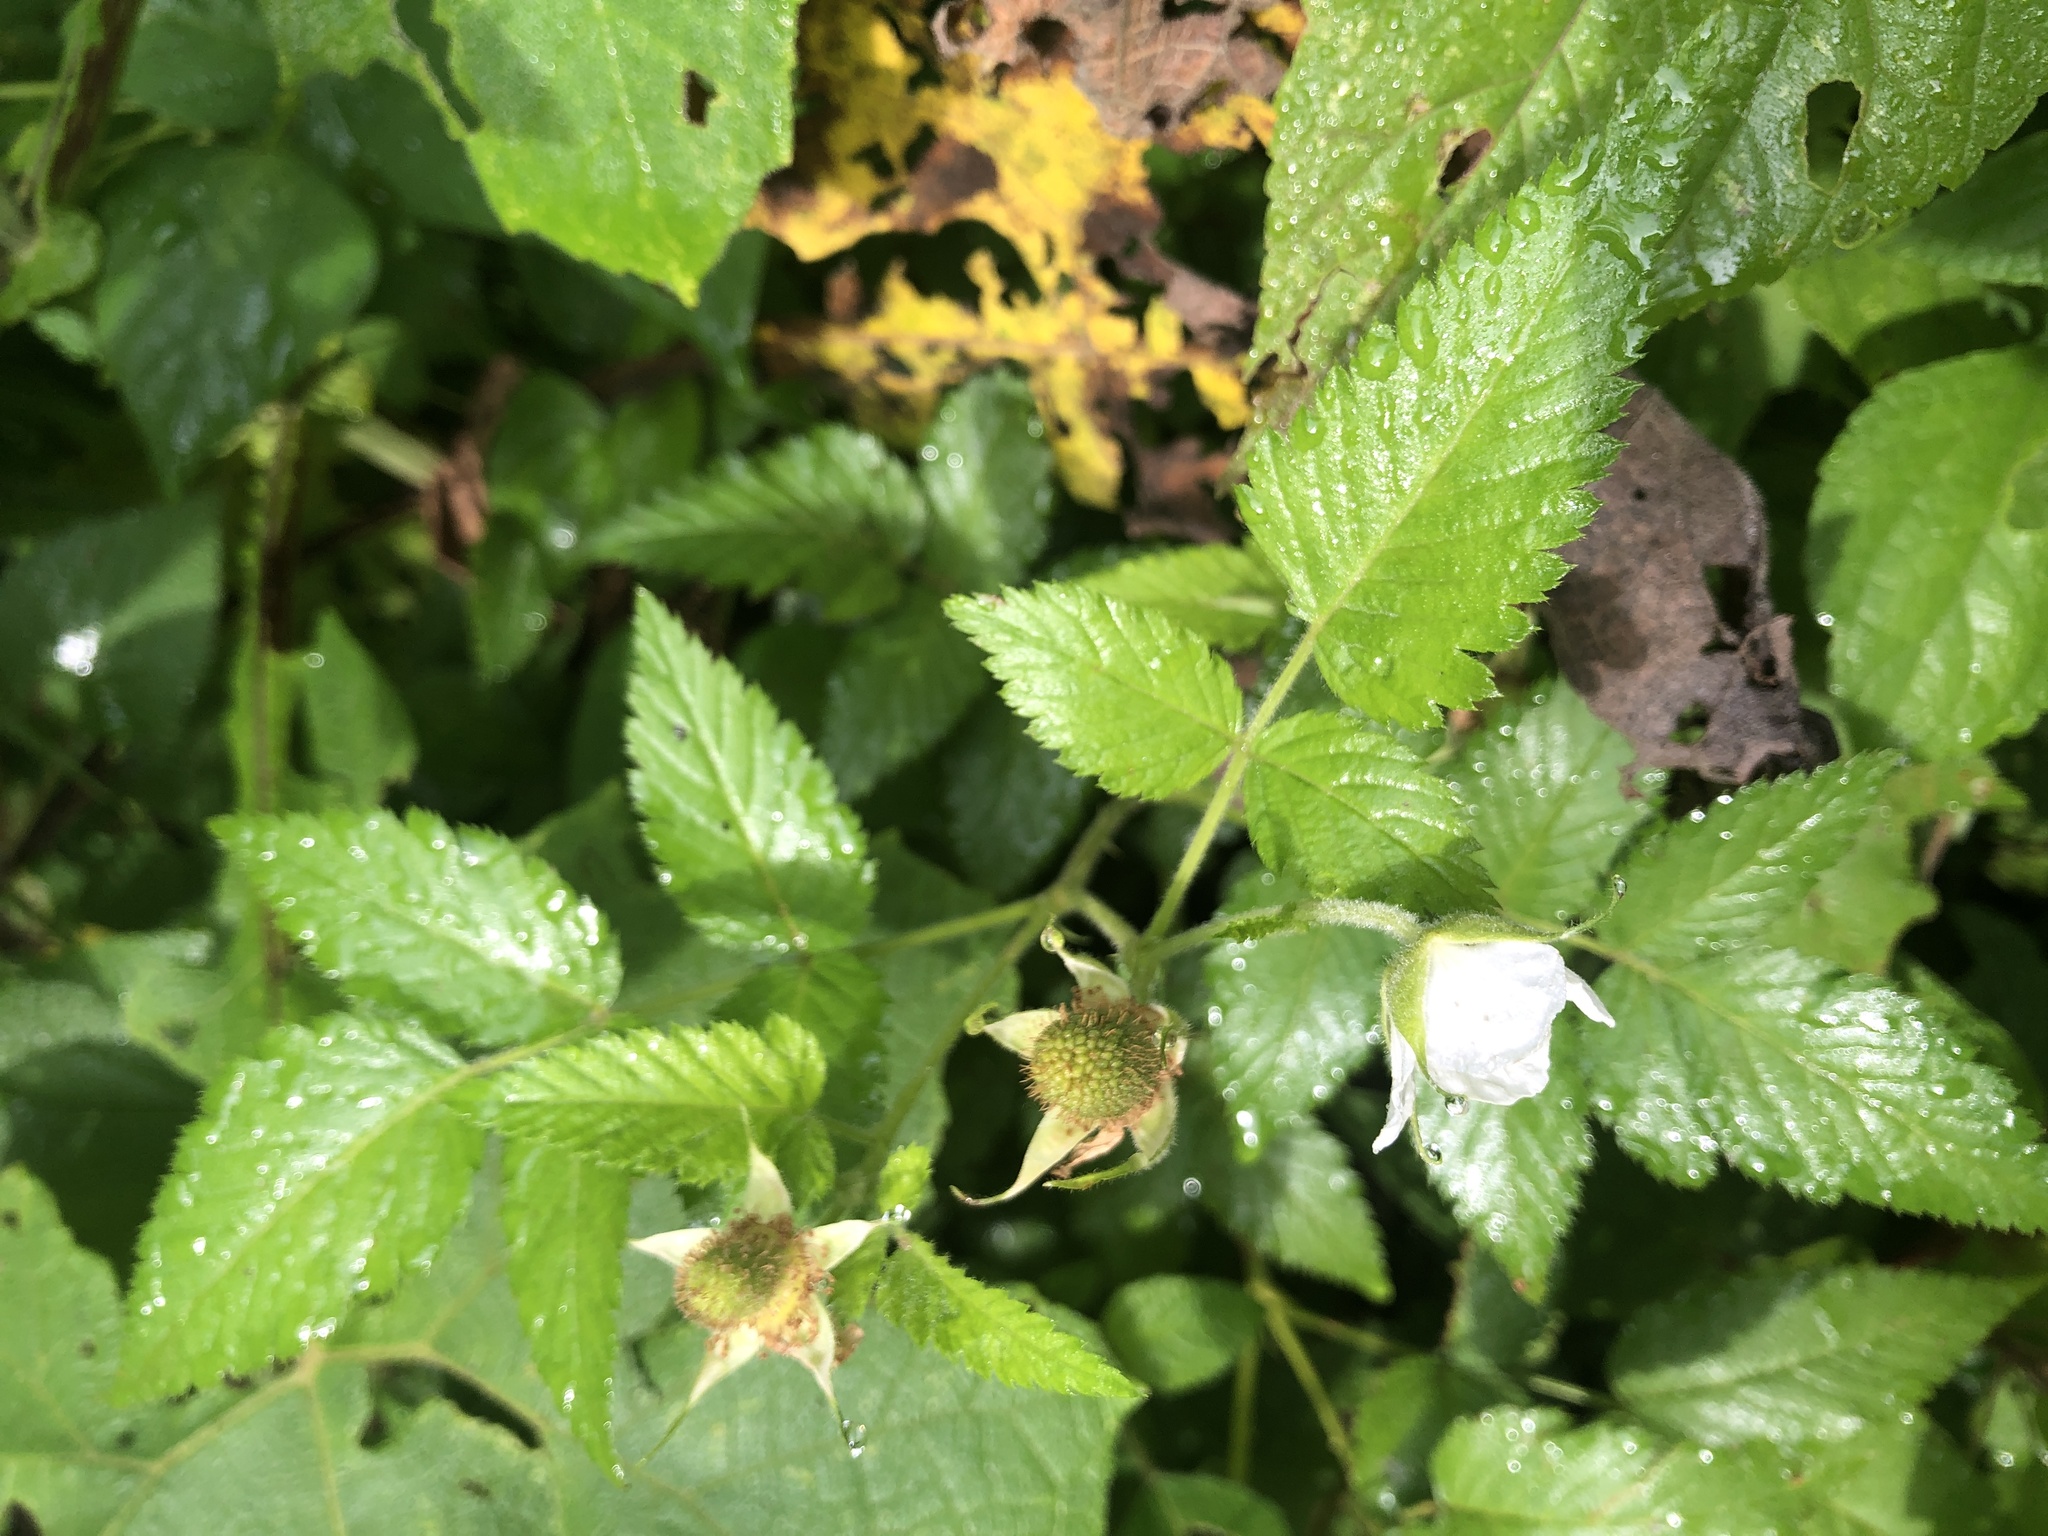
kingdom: Plantae
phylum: Tracheophyta
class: Magnoliopsida
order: Rosales
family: Rosaceae
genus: Rubus
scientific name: Rubus rosifolius
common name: Roseleaf raspberry
